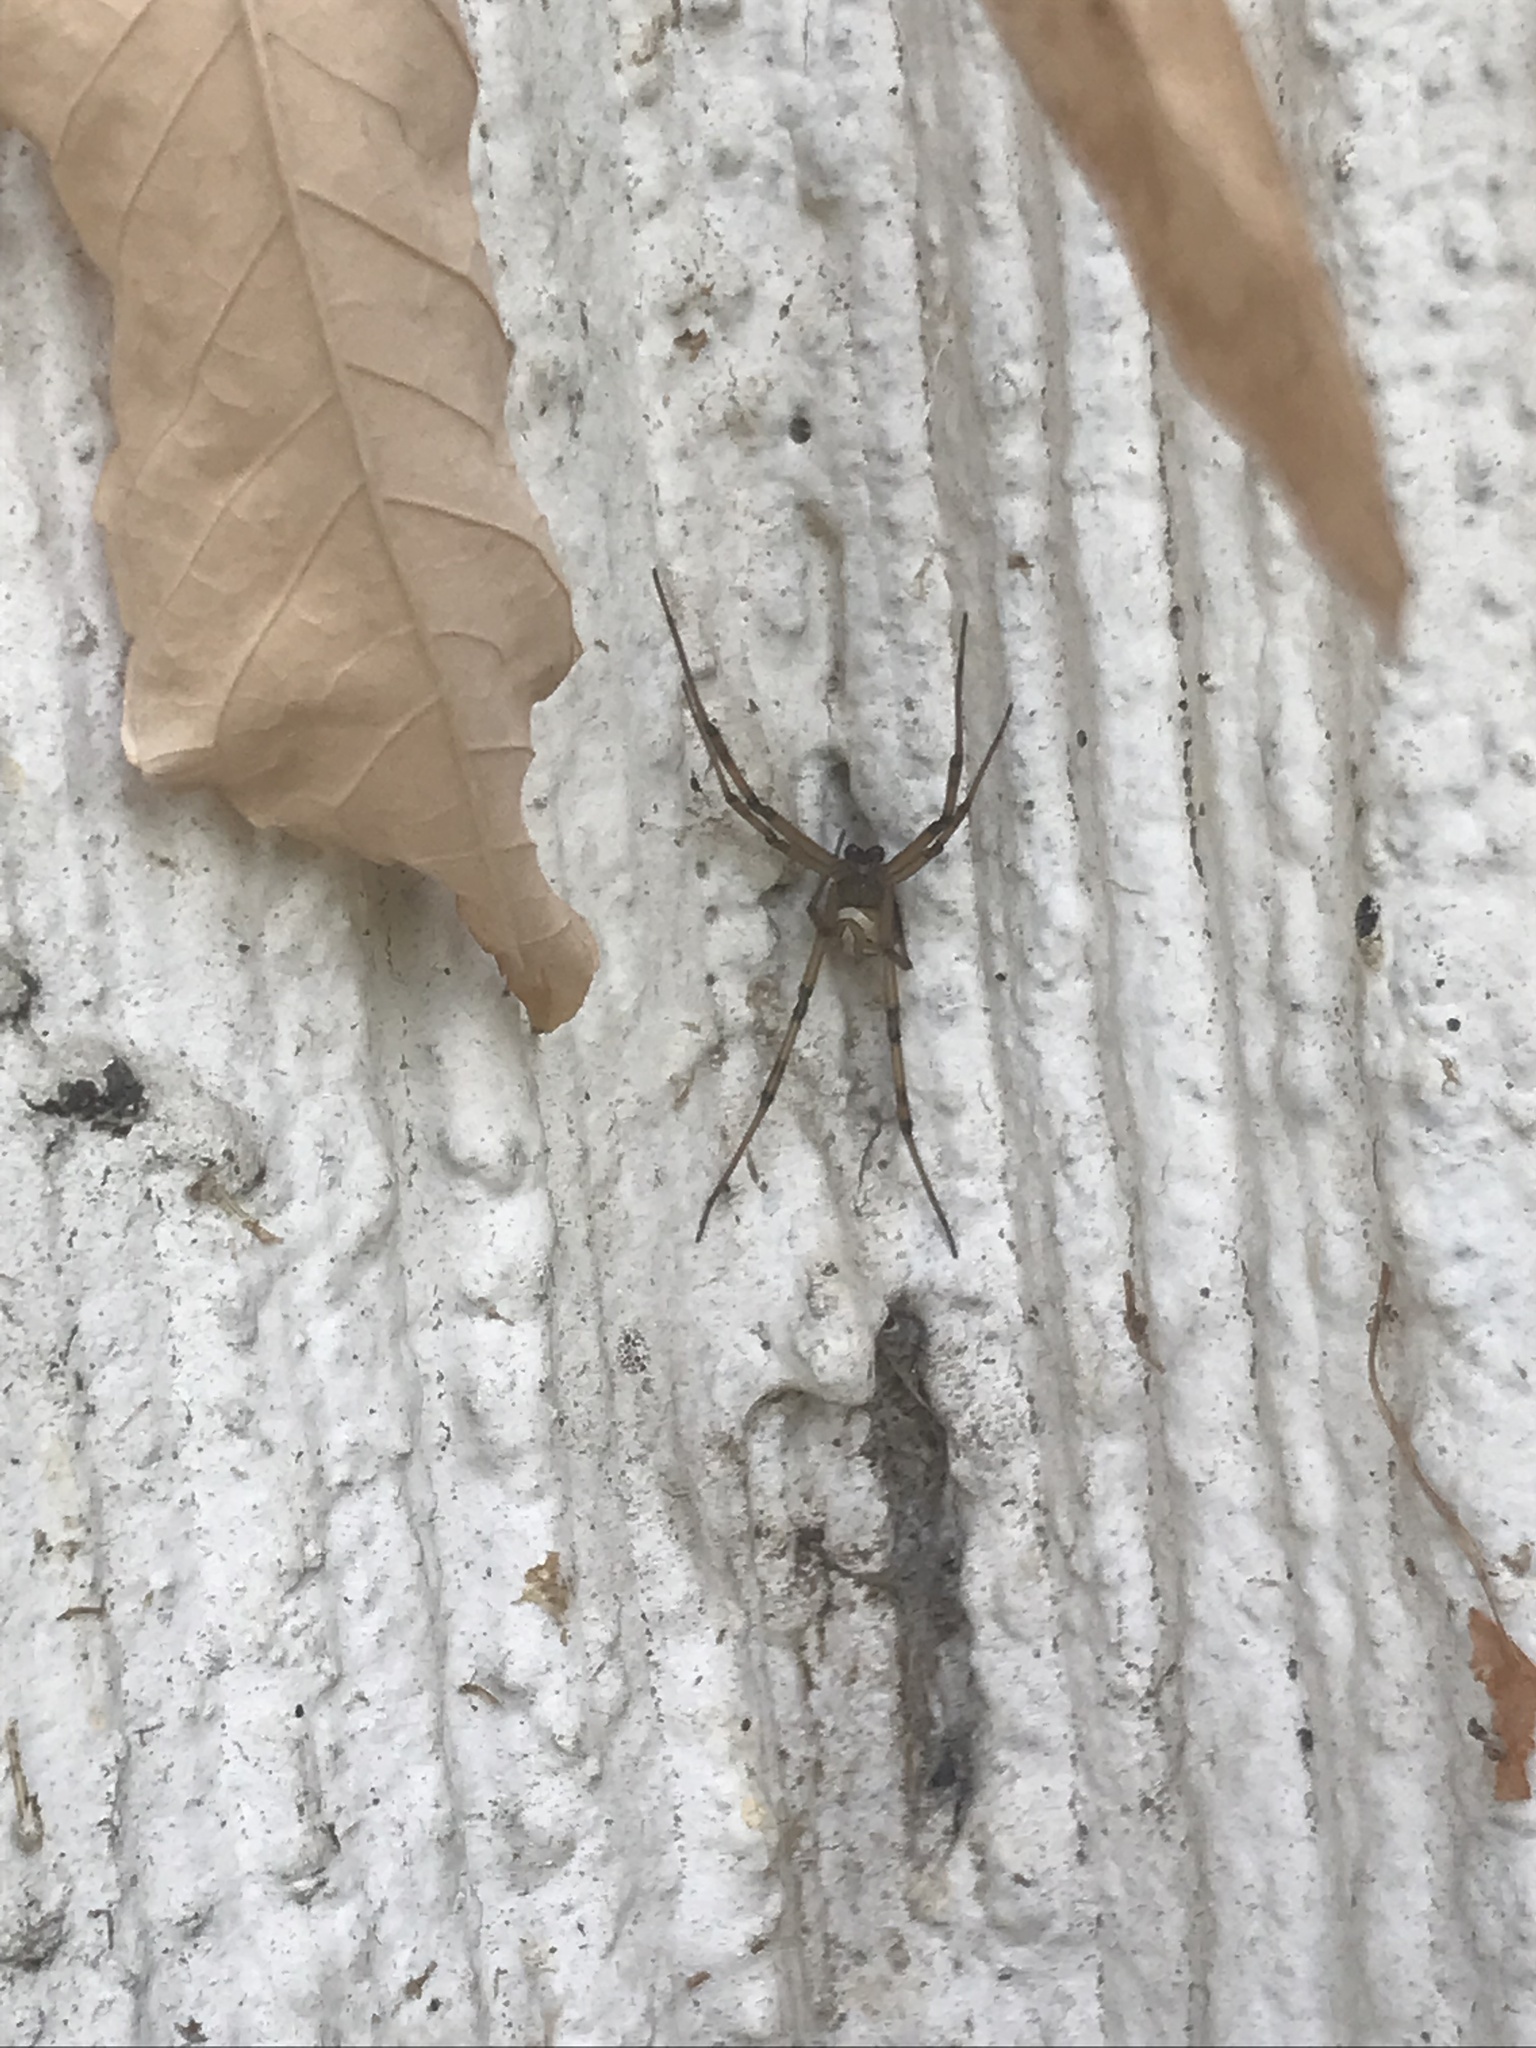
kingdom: Animalia
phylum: Arthropoda
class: Arachnida
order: Araneae
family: Theridiidae
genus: Latrodectus
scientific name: Latrodectus hesperus
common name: Western black widow
